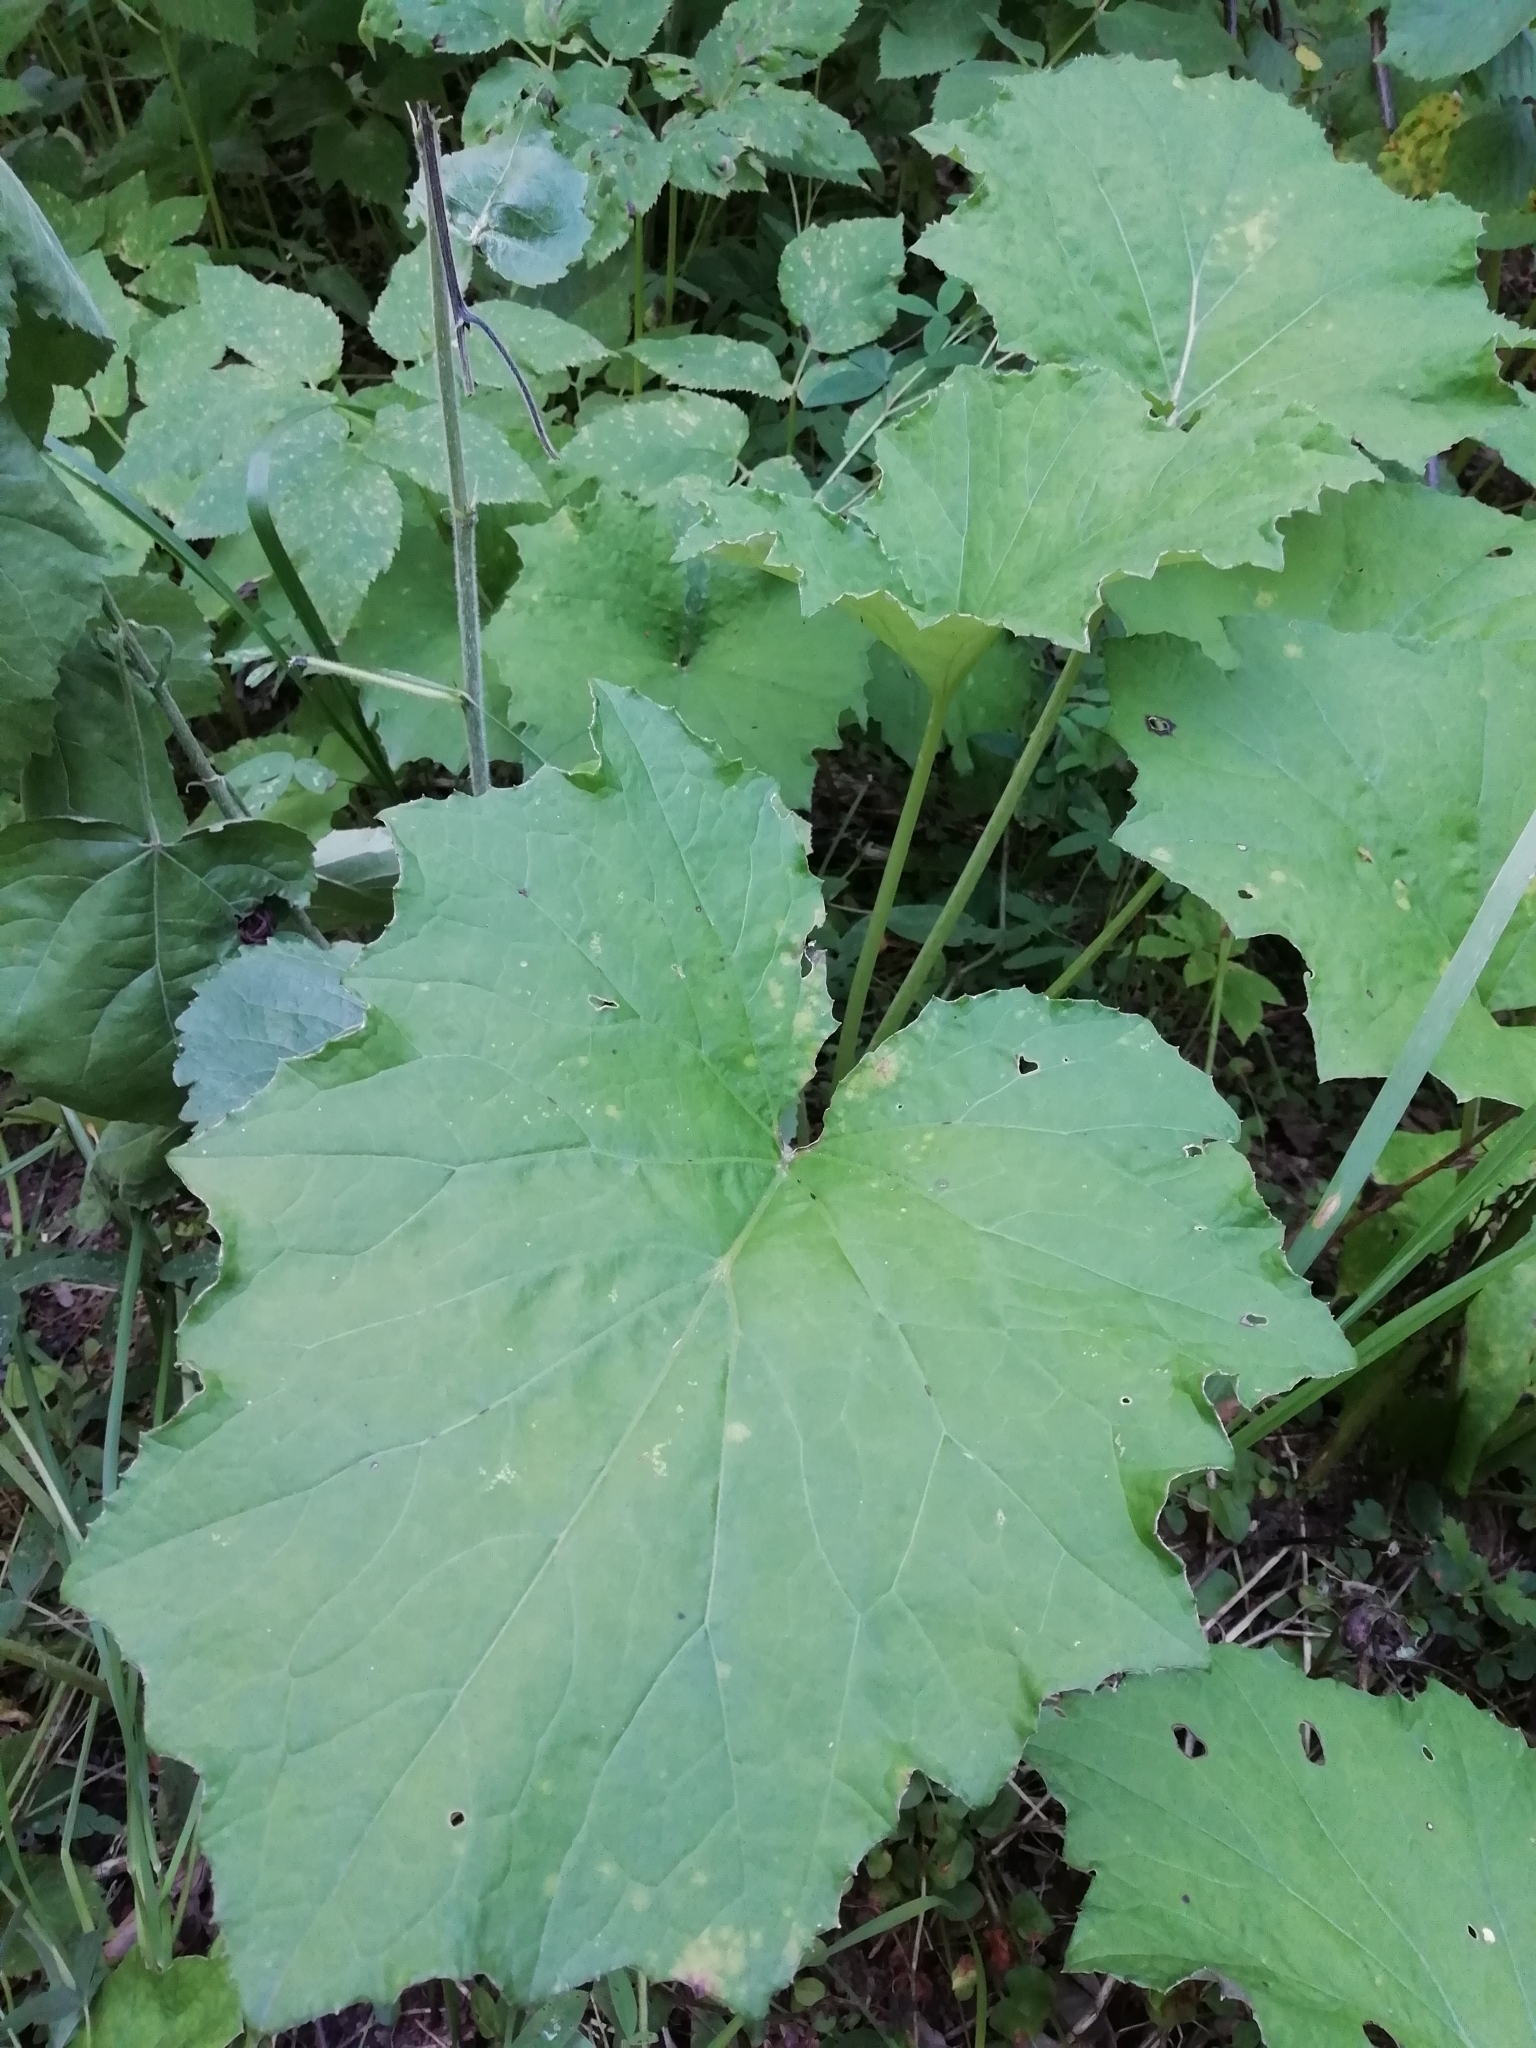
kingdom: Plantae
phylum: Tracheophyta
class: Magnoliopsida
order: Asterales
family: Asteraceae
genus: Tussilago
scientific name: Tussilago farfara
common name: Coltsfoot
